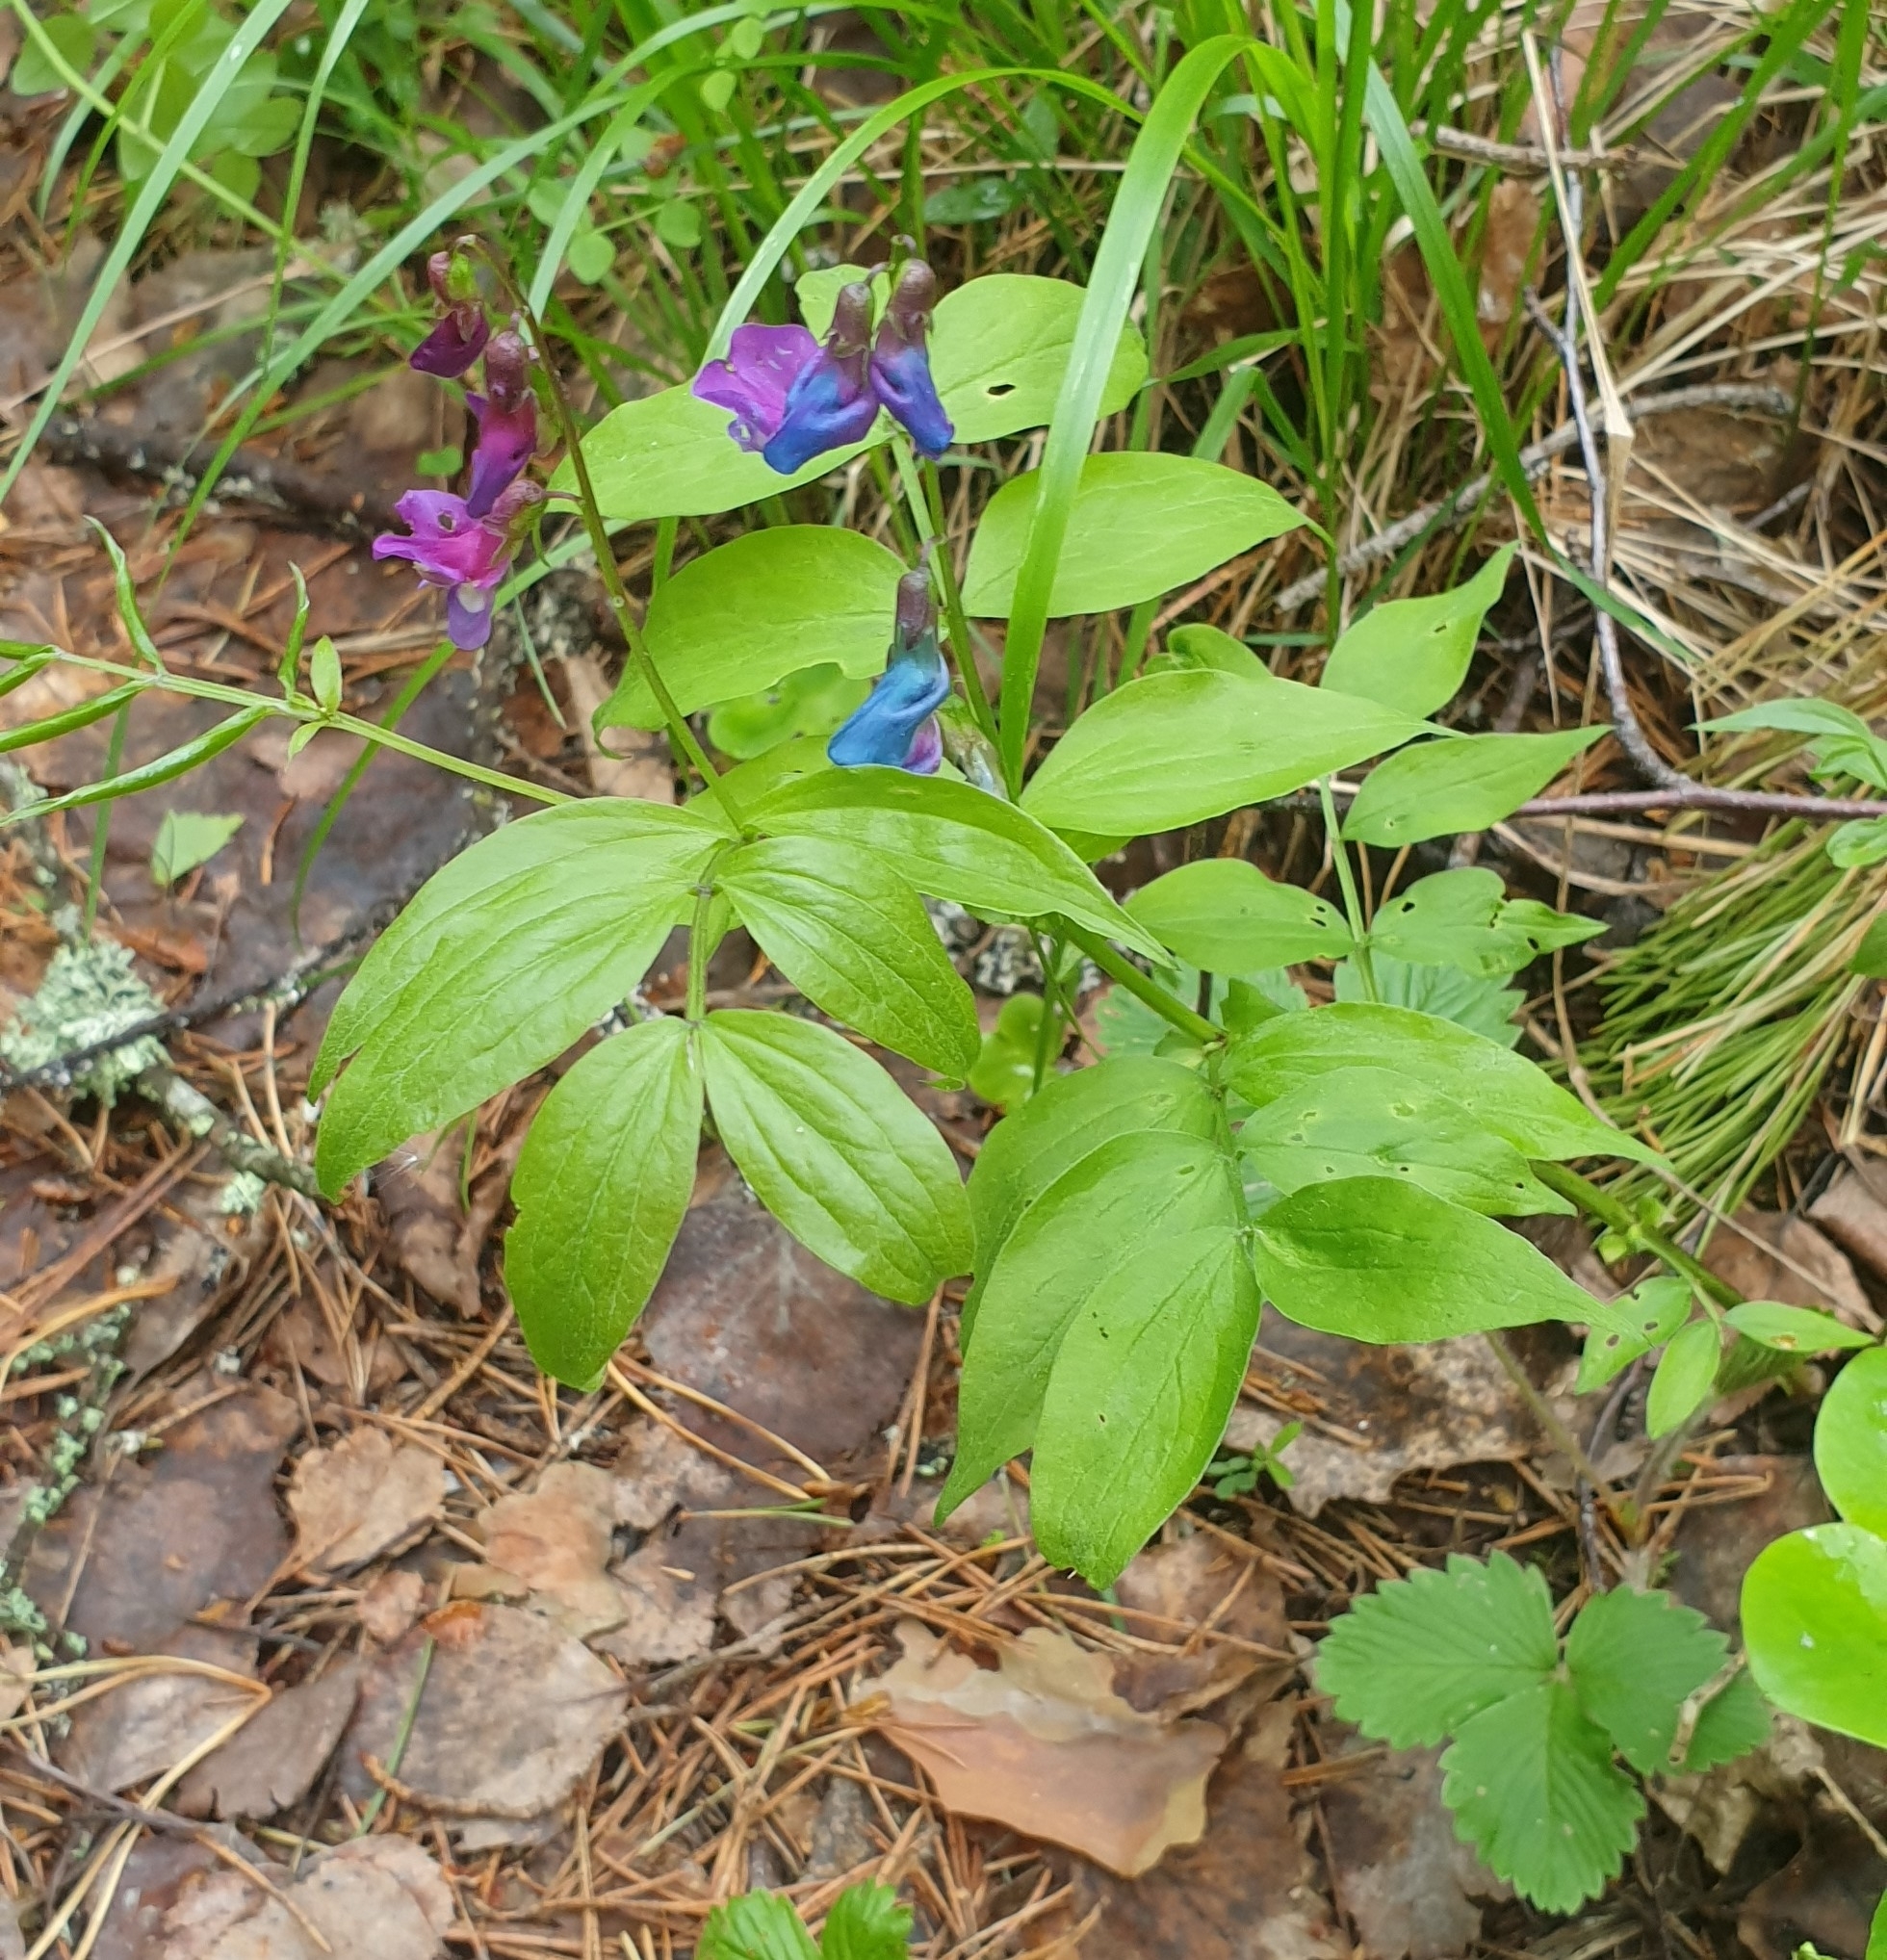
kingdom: Plantae
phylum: Tracheophyta
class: Magnoliopsida
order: Fabales
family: Fabaceae
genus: Lathyrus
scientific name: Lathyrus vernus
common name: Spring pea
